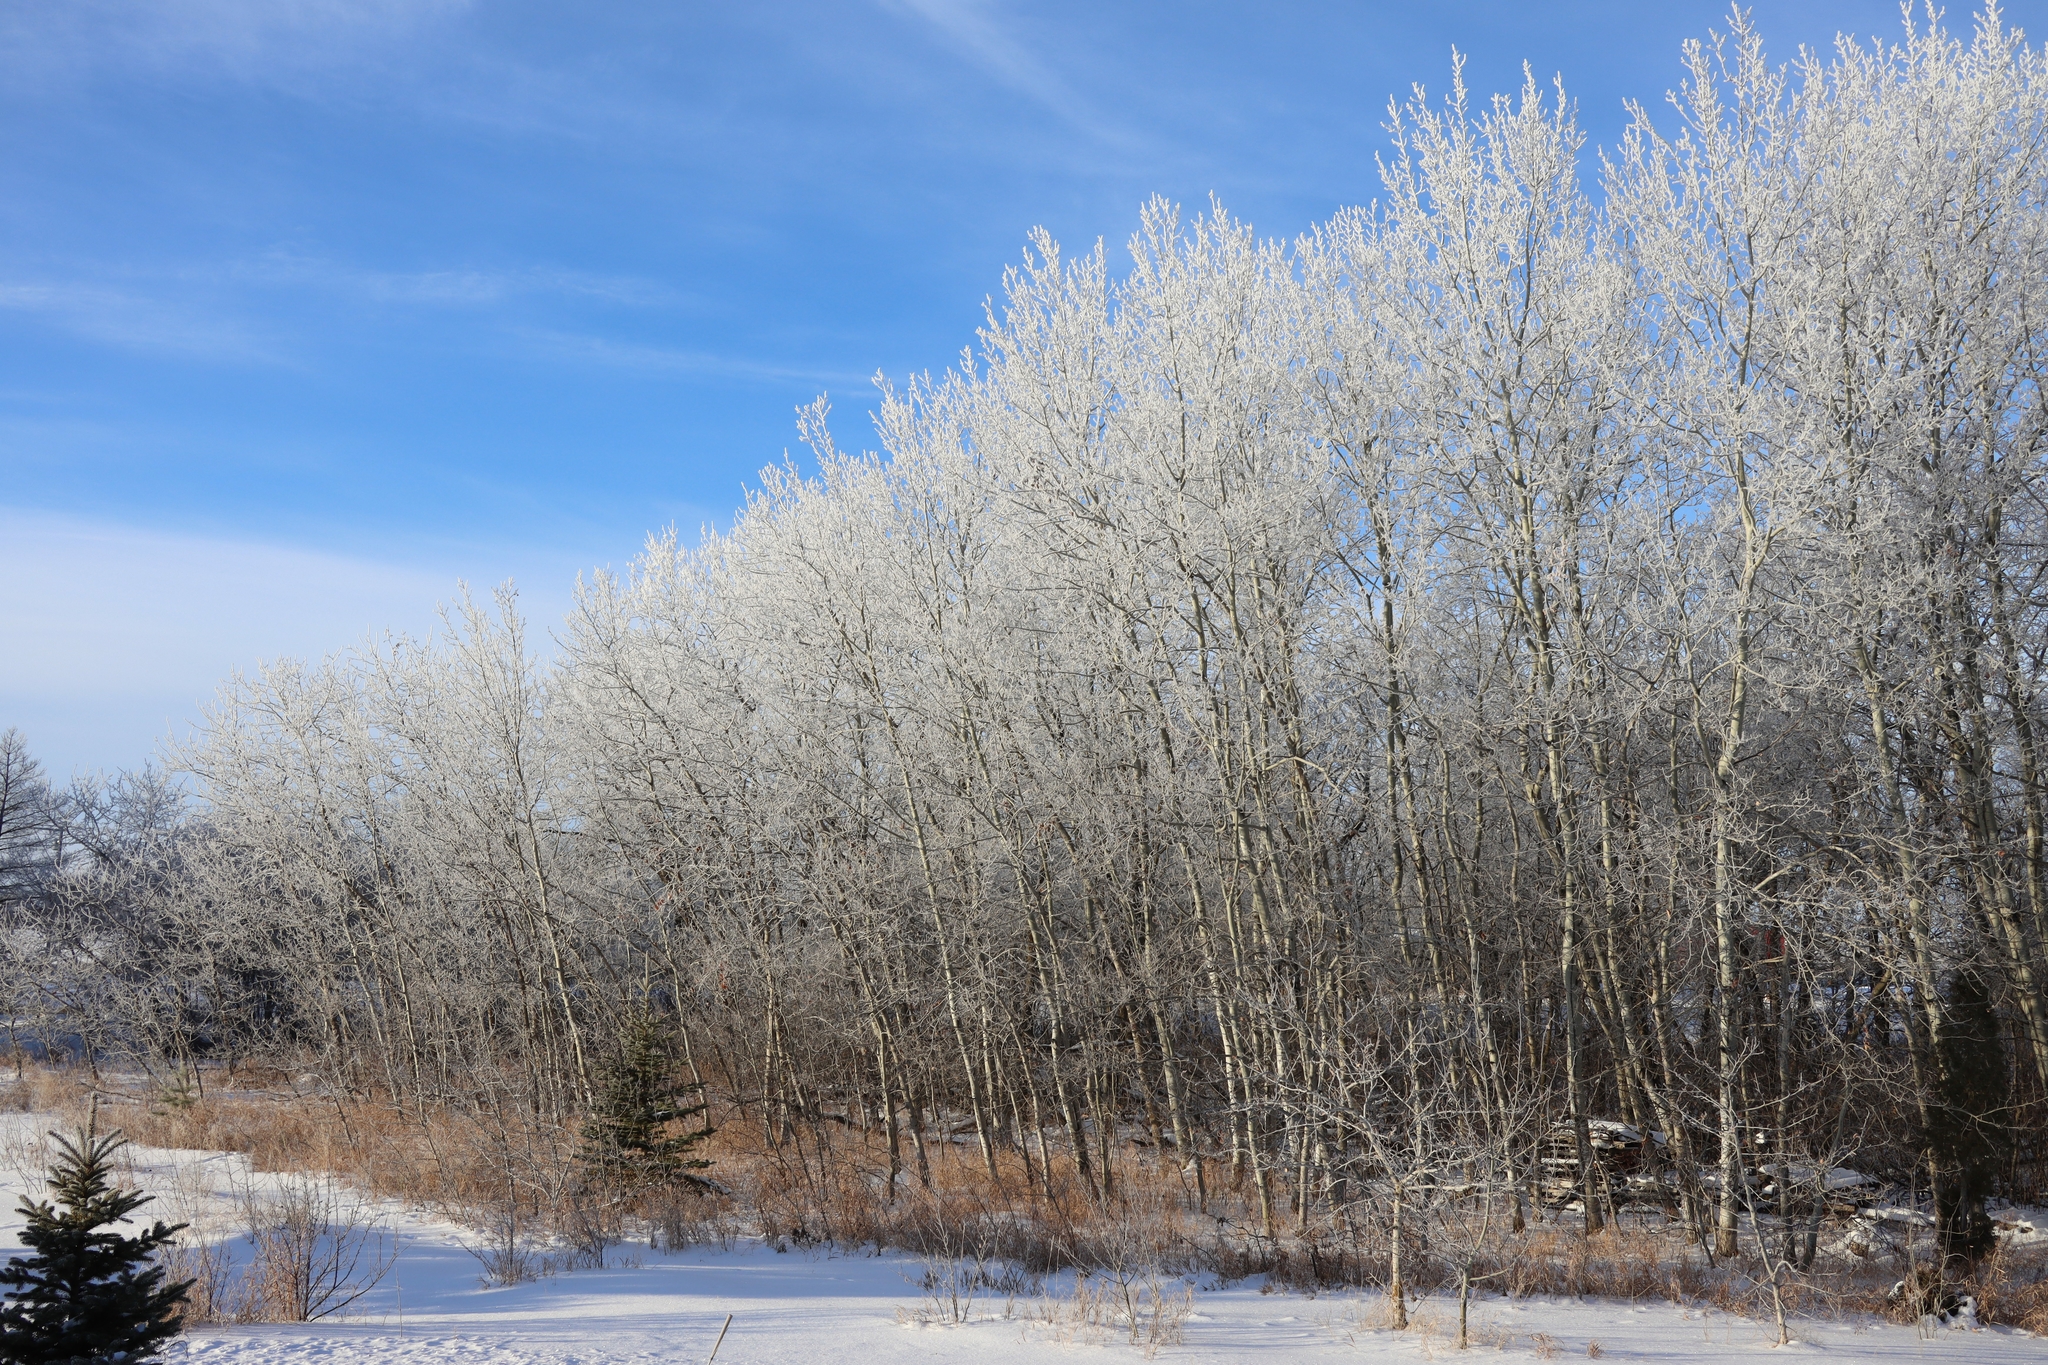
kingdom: Plantae
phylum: Tracheophyta
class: Magnoliopsida
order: Malpighiales
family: Salicaceae
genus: Populus
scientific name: Populus tremuloides
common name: Quaking aspen
